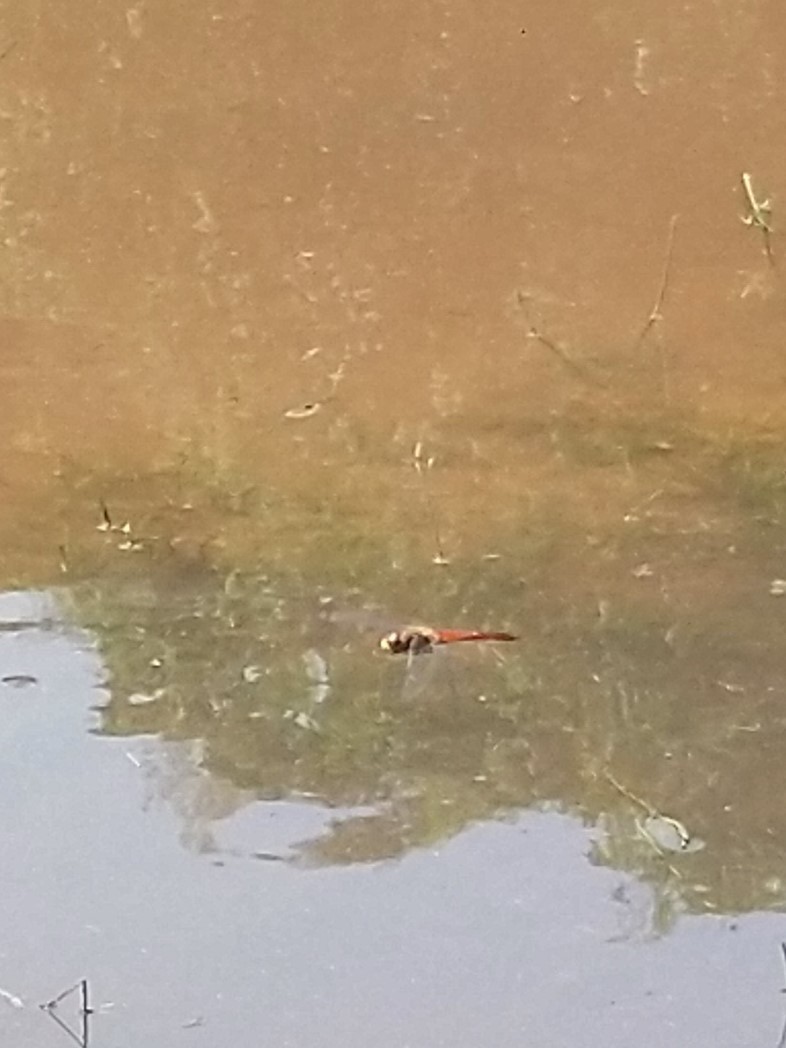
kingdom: Animalia
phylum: Arthropoda
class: Insecta
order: Odonata
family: Libellulidae
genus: Pantala
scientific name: Pantala flavescens
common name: Wandering glider
